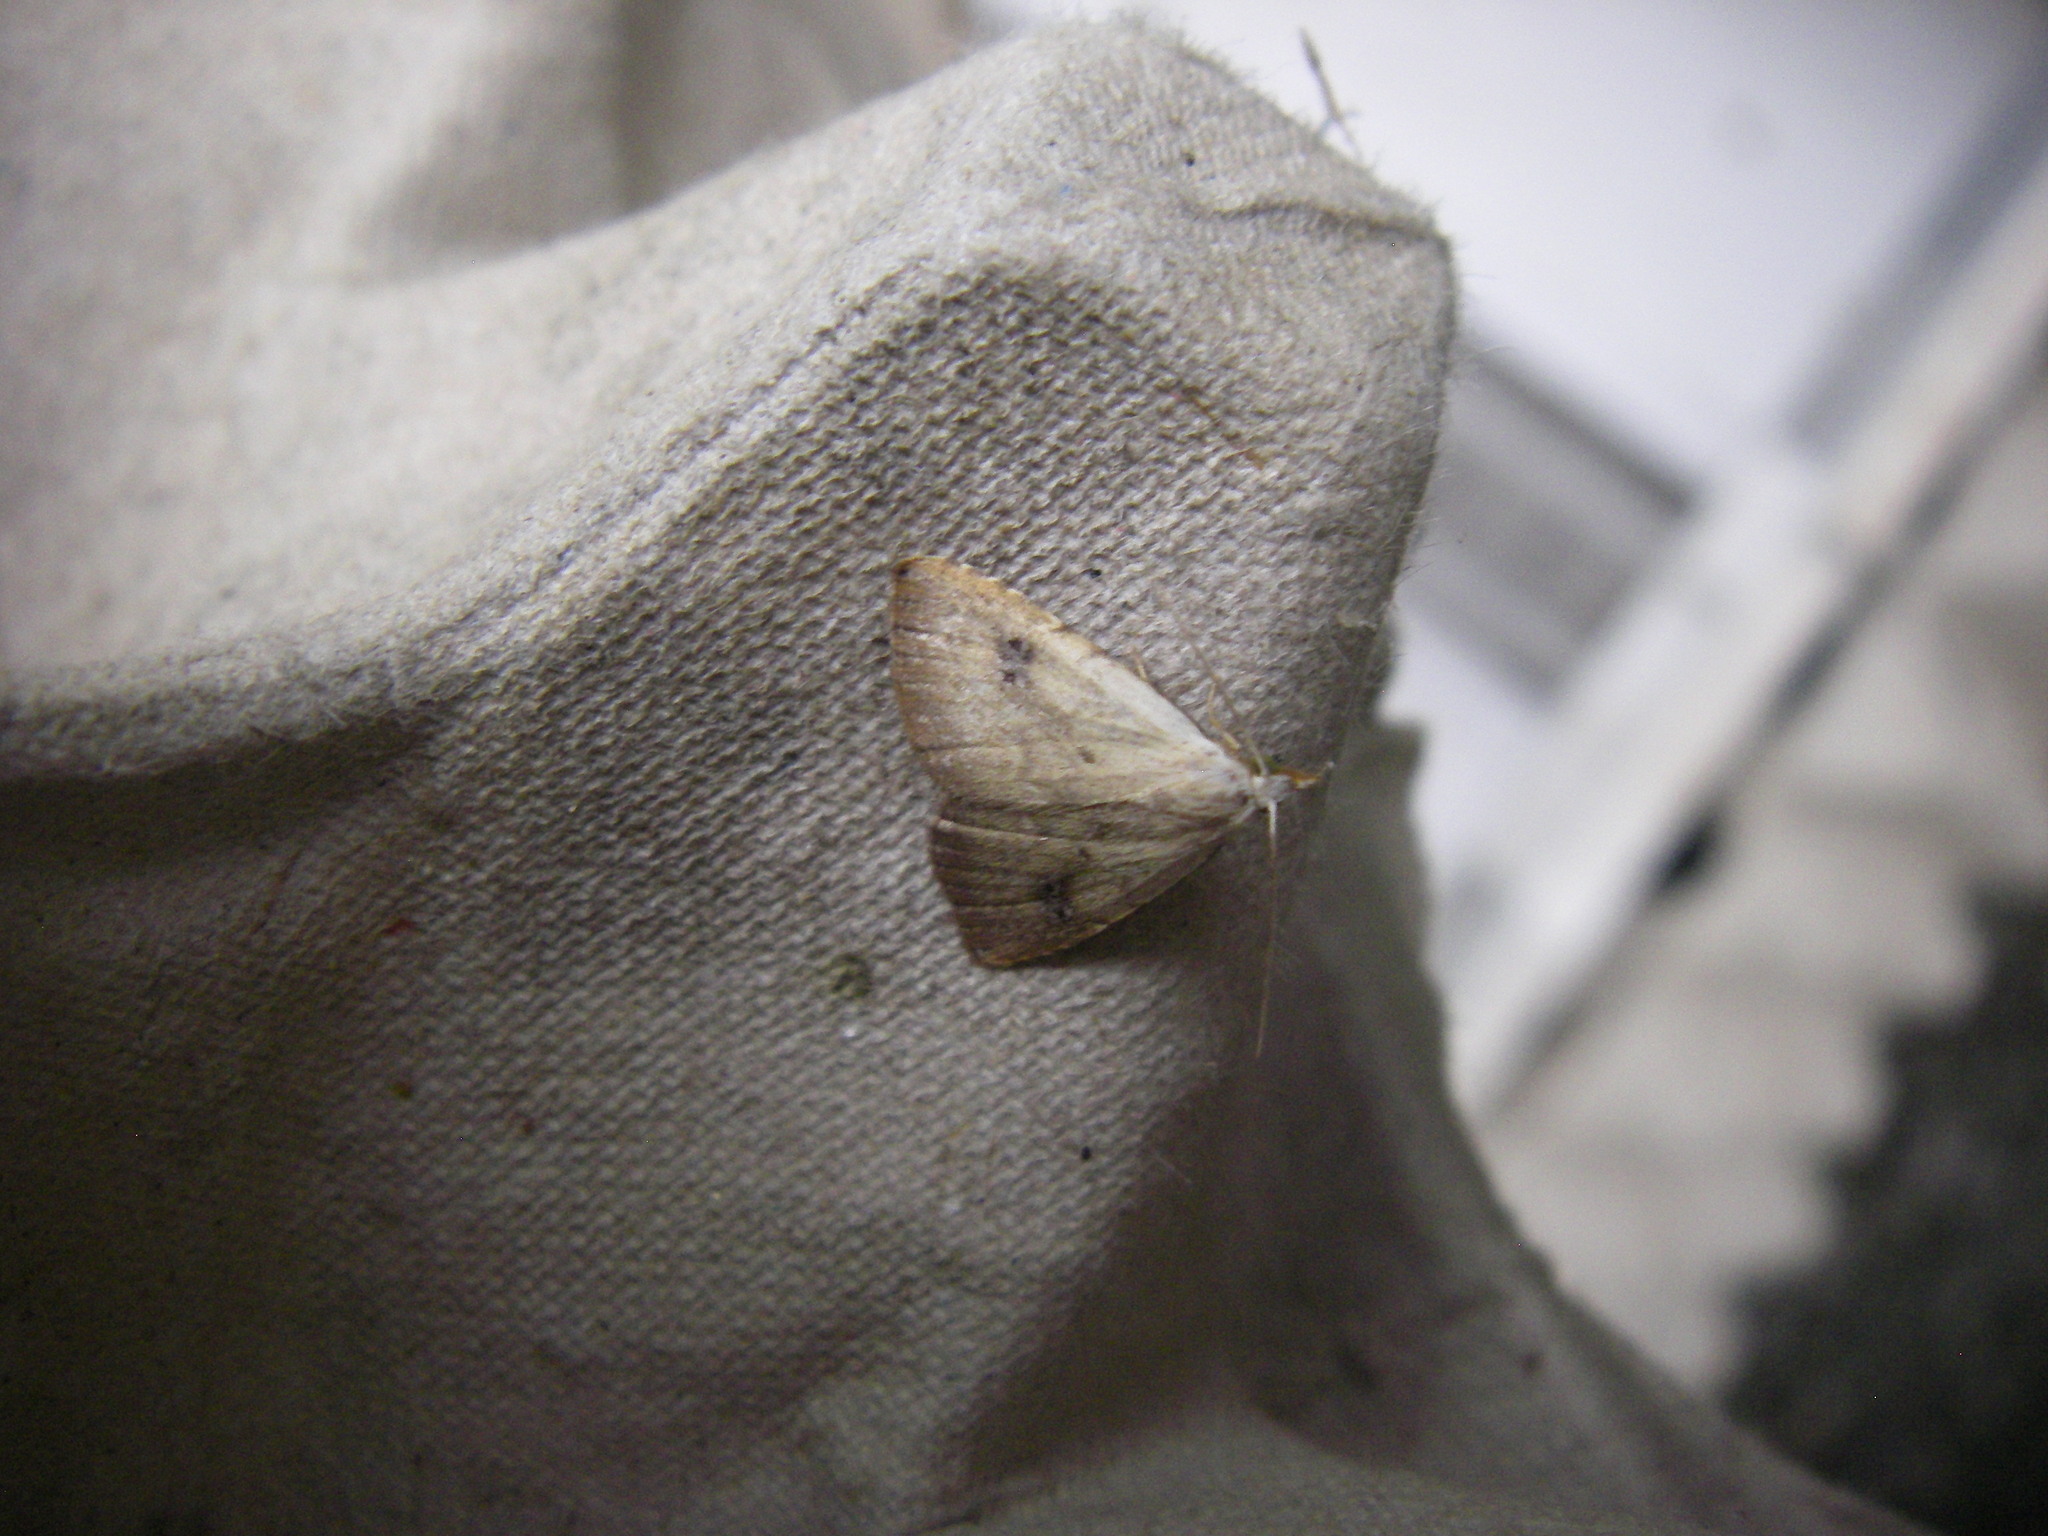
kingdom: Animalia
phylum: Arthropoda
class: Insecta
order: Lepidoptera
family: Erebidae
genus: Rivula
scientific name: Rivula sericealis
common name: Straw dot
